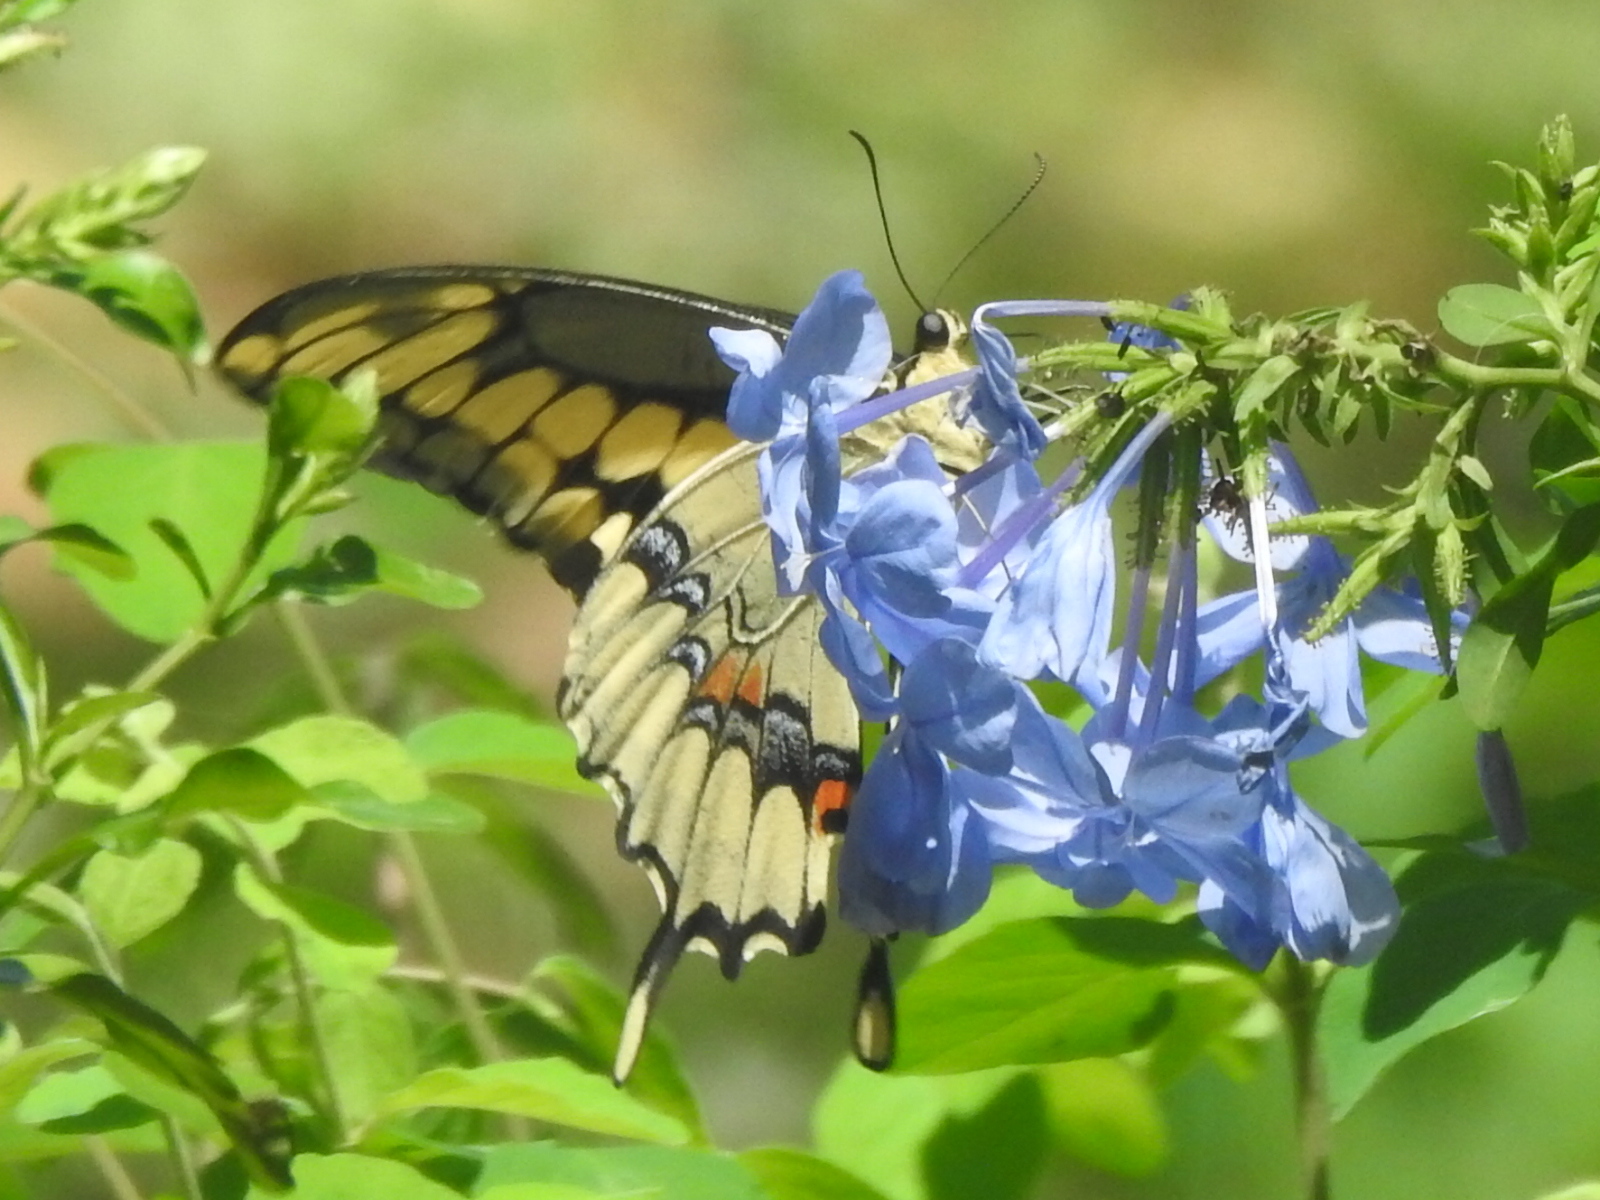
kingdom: Animalia
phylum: Arthropoda
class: Insecta
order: Lepidoptera
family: Papilionidae
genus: Papilio
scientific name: Papilio cresphontes
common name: Giant swallowtail
